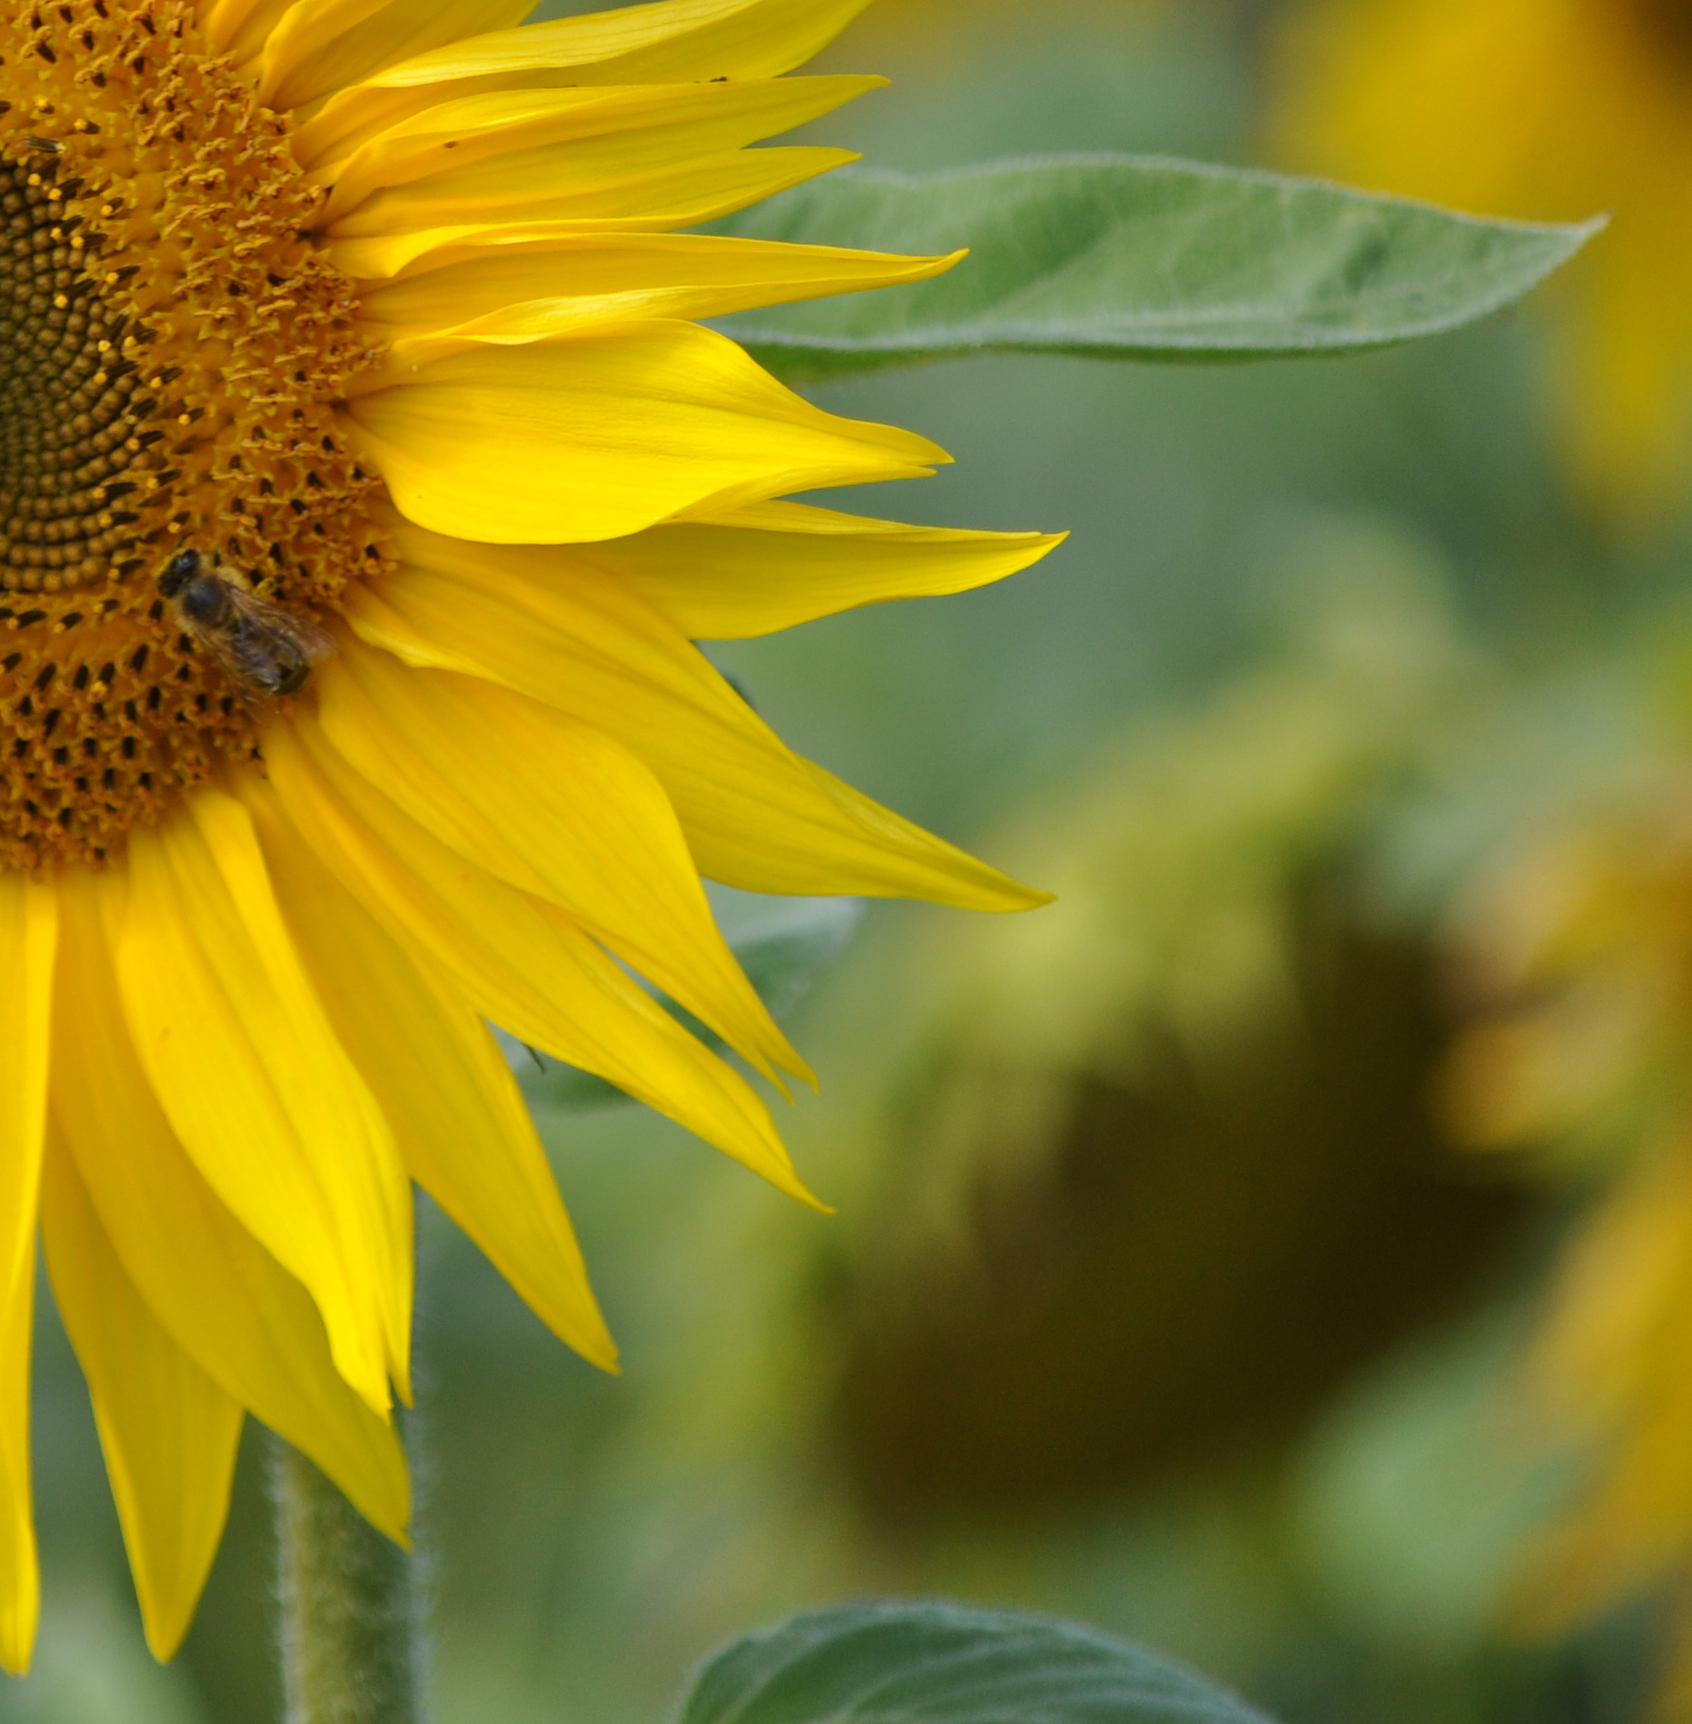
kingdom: Animalia
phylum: Arthropoda
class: Insecta
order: Hymenoptera
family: Apidae
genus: Apis
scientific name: Apis mellifera
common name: Honey bee
